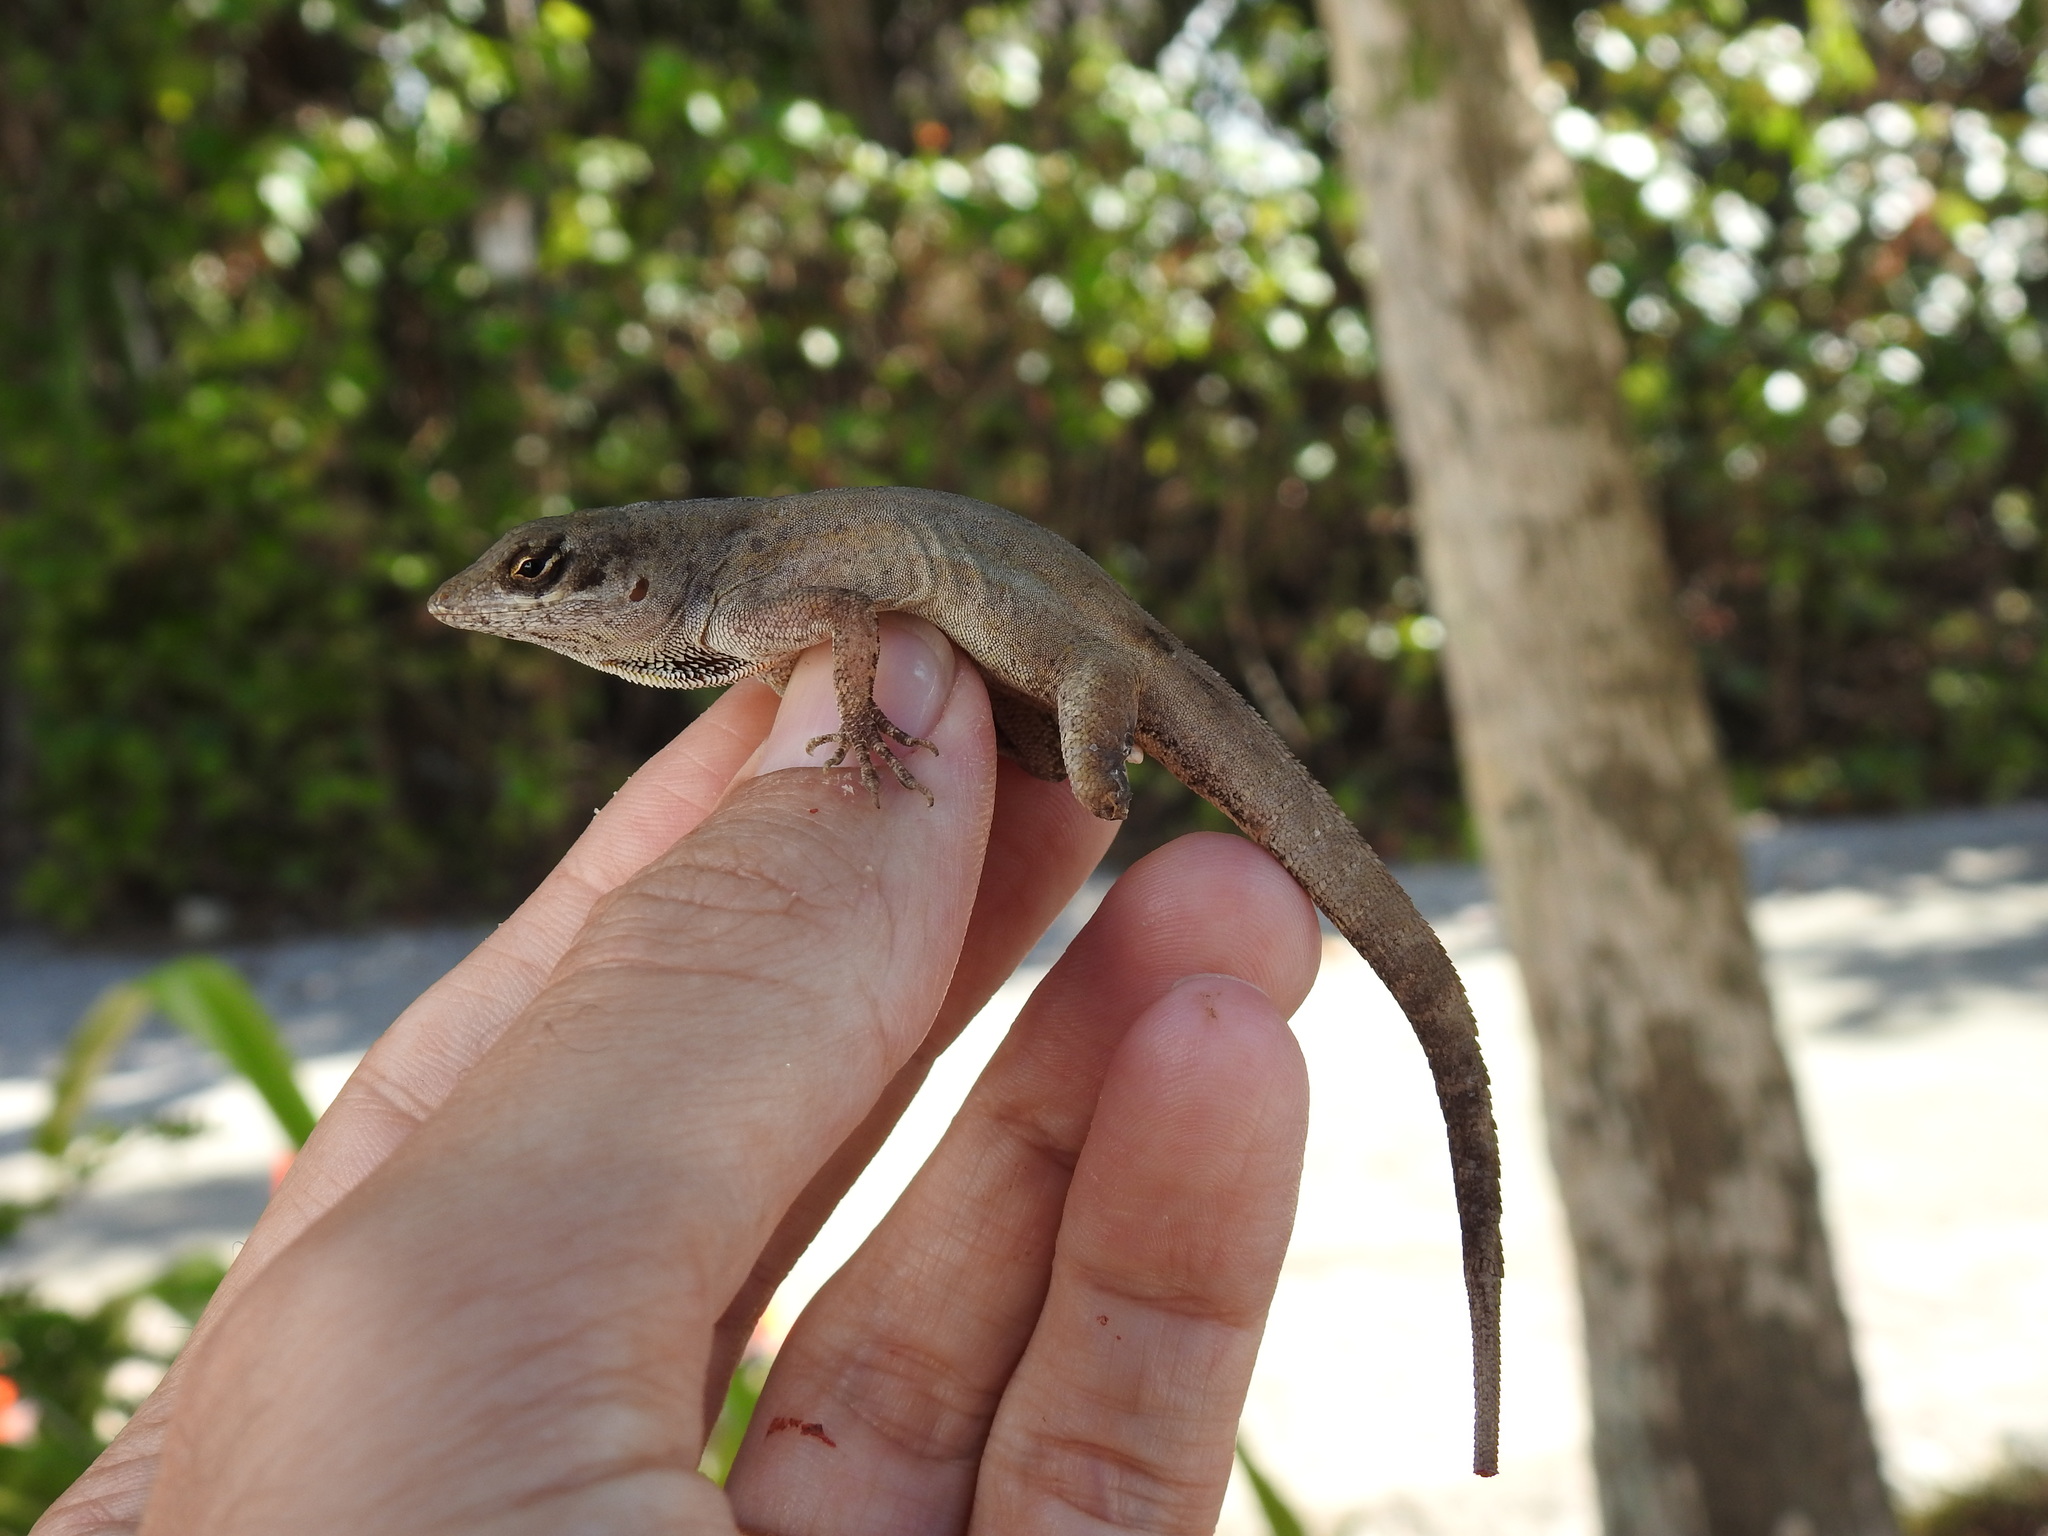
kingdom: Animalia
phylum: Chordata
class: Squamata
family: Dactyloidae
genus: Anolis
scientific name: Anolis sagrei
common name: Brown anole
